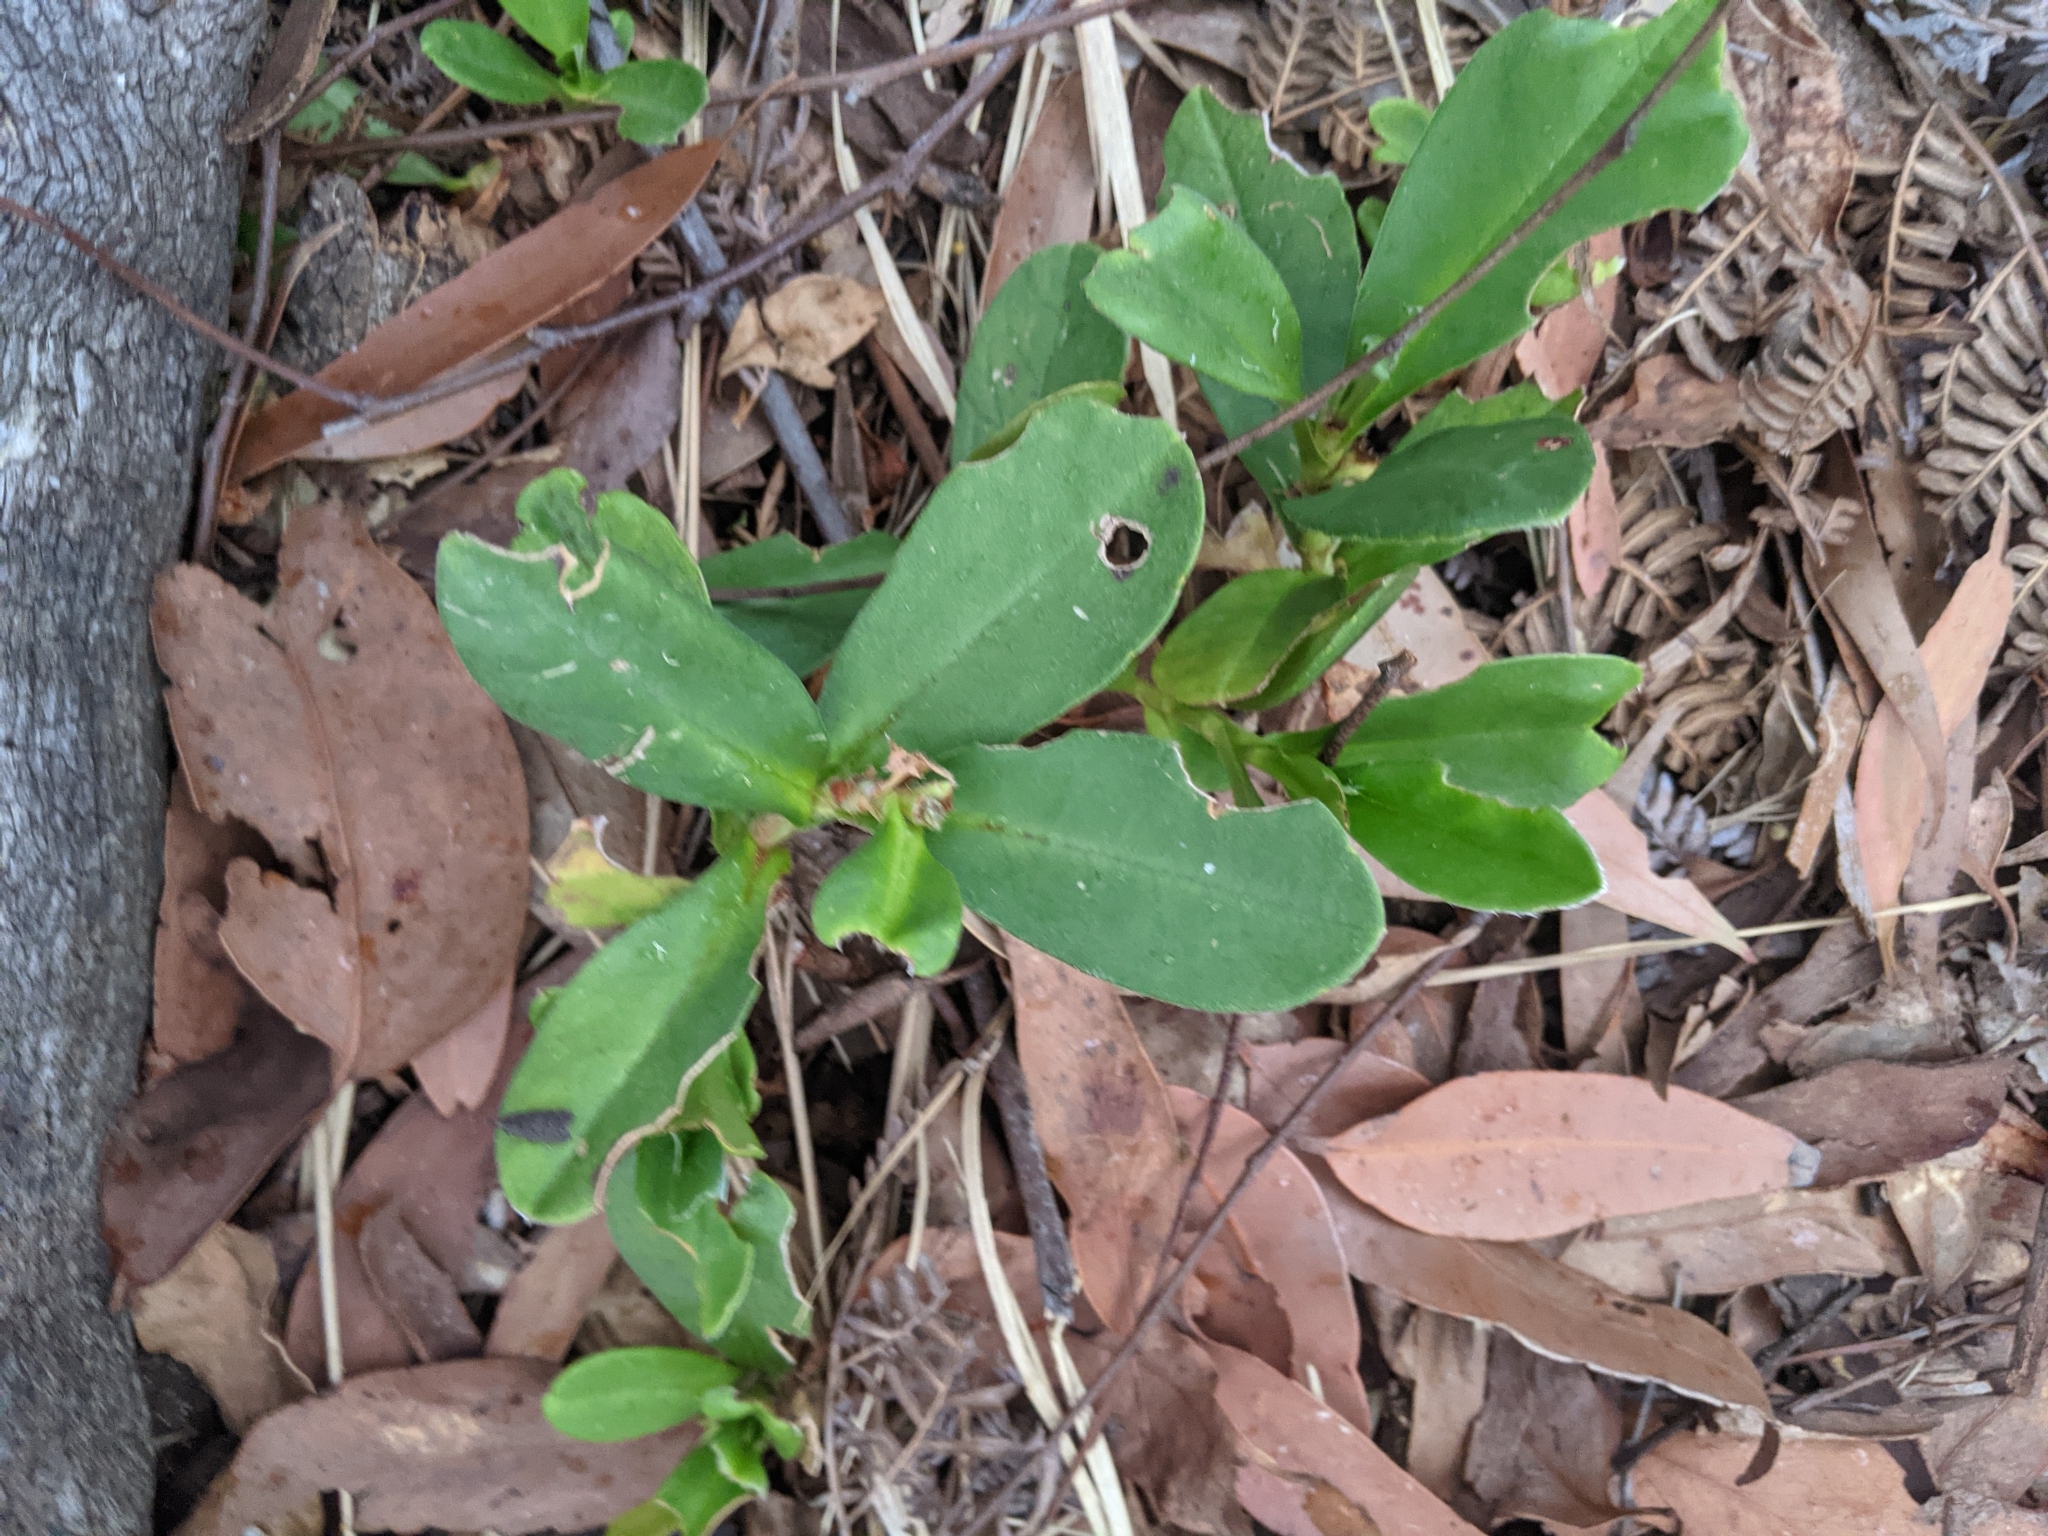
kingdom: Plantae
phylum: Tracheophyta
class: Magnoliopsida
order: Dilleniales
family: Dilleniaceae
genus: Hibbertia
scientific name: Hibbertia scandens
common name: Climbing guinea-flower
